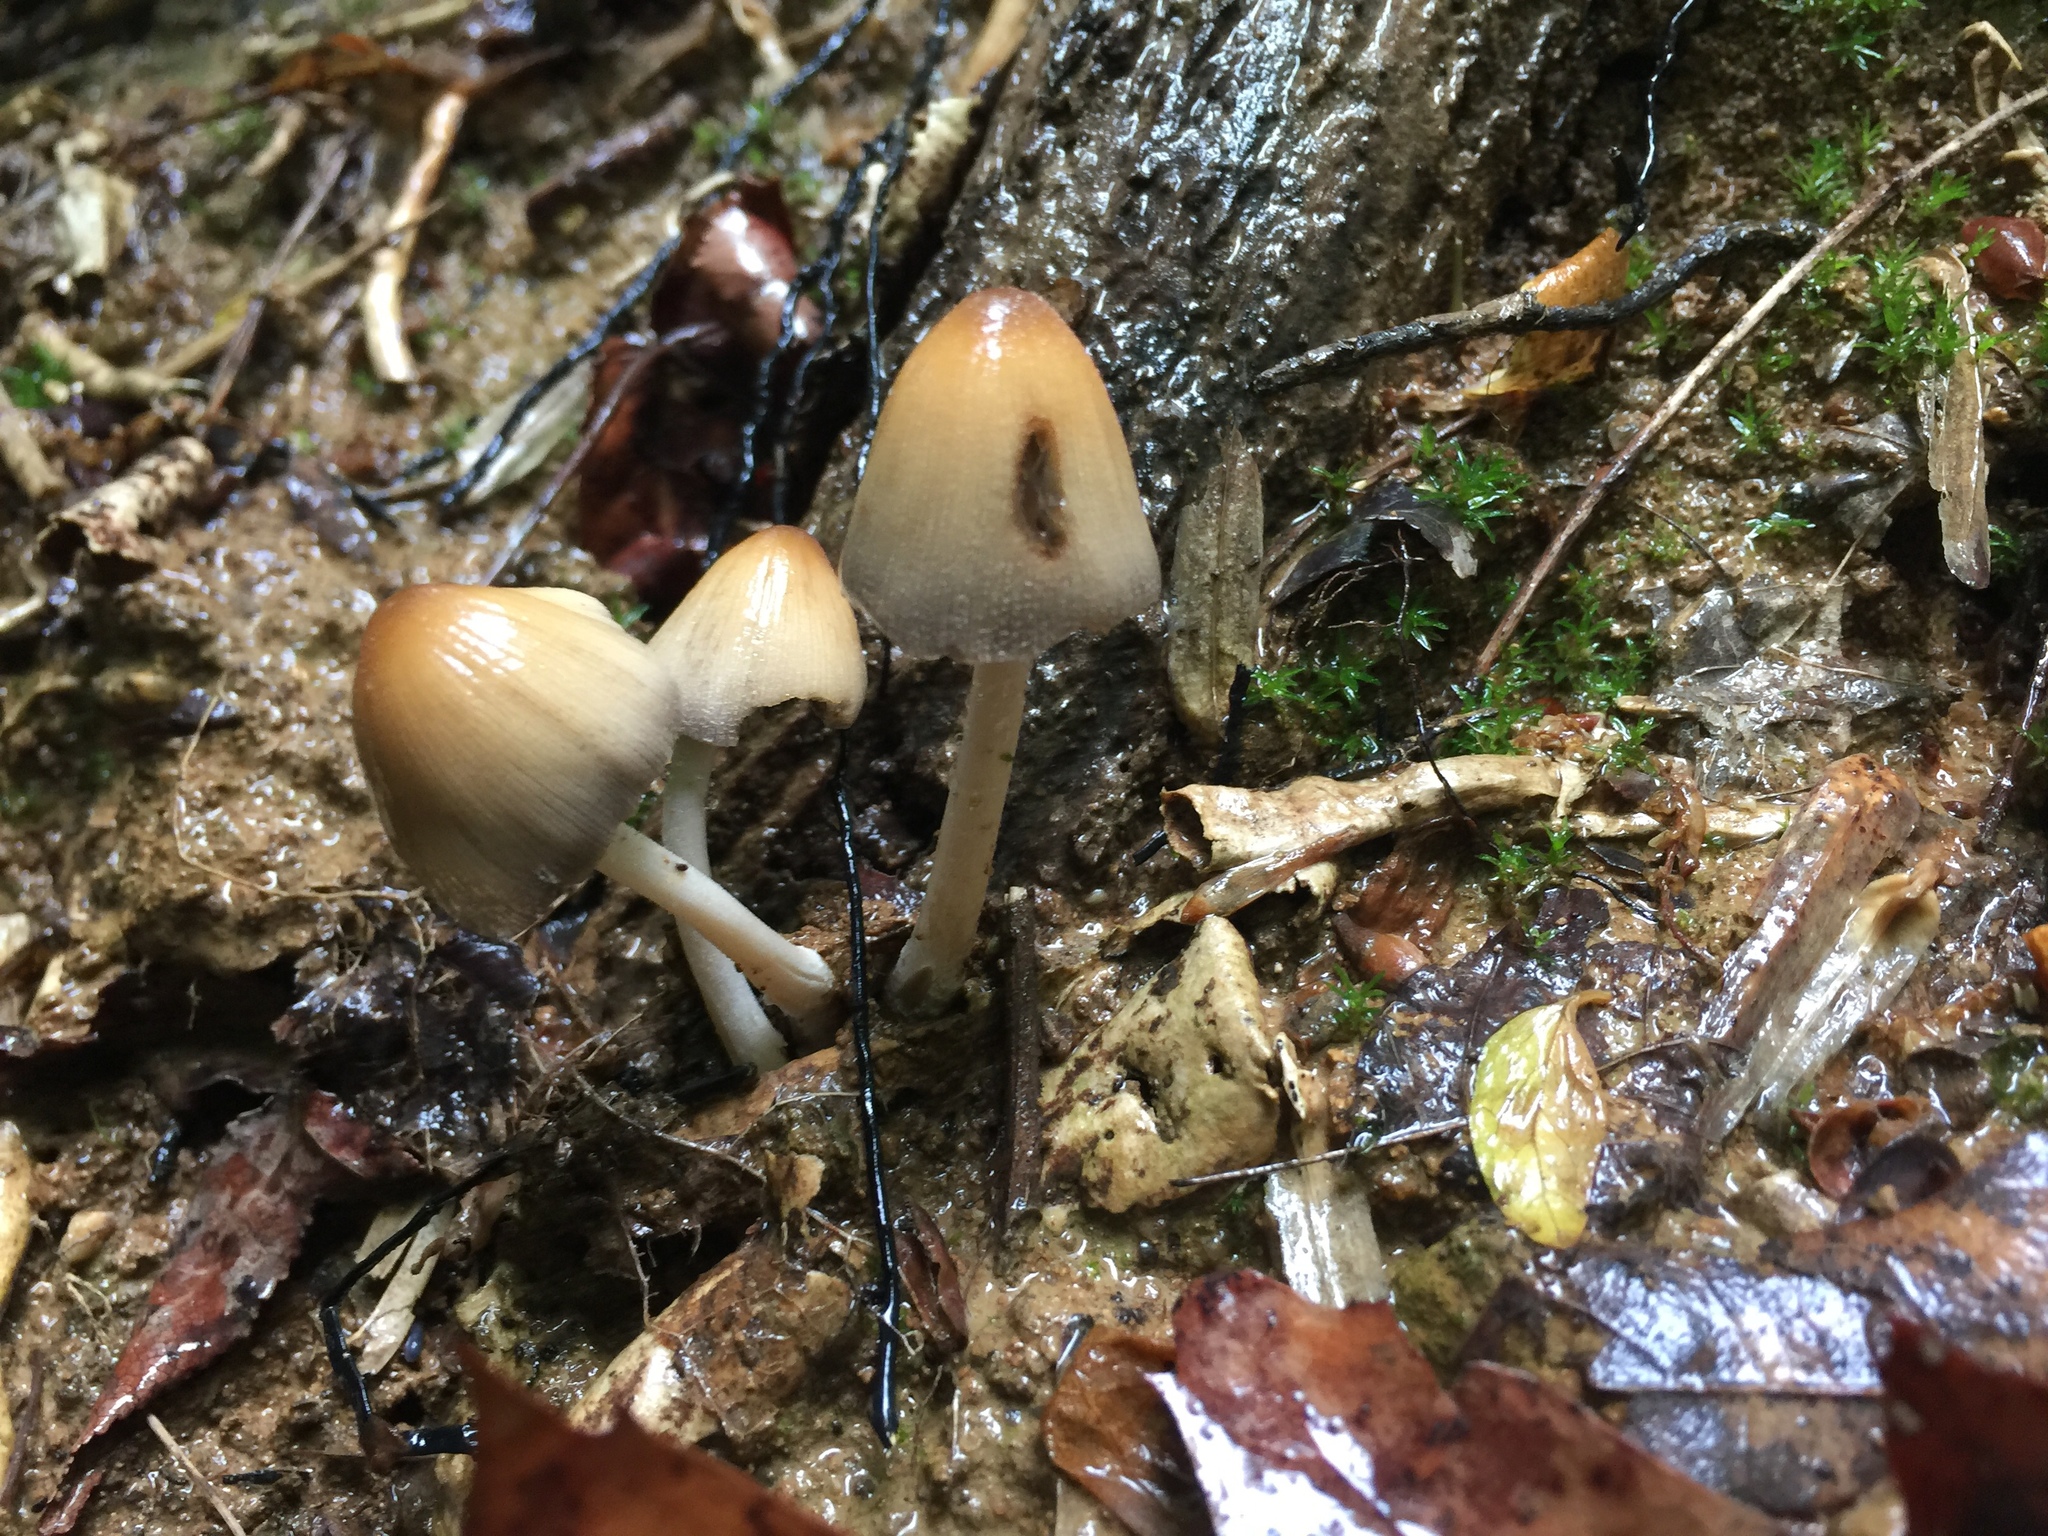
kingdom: Fungi
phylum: Basidiomycota
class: Agaricomycetes
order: Agaricales
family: Psathyrellaceae
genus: Coprinellus
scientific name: Coprinellus micaceus
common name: Glistening ink-cap
